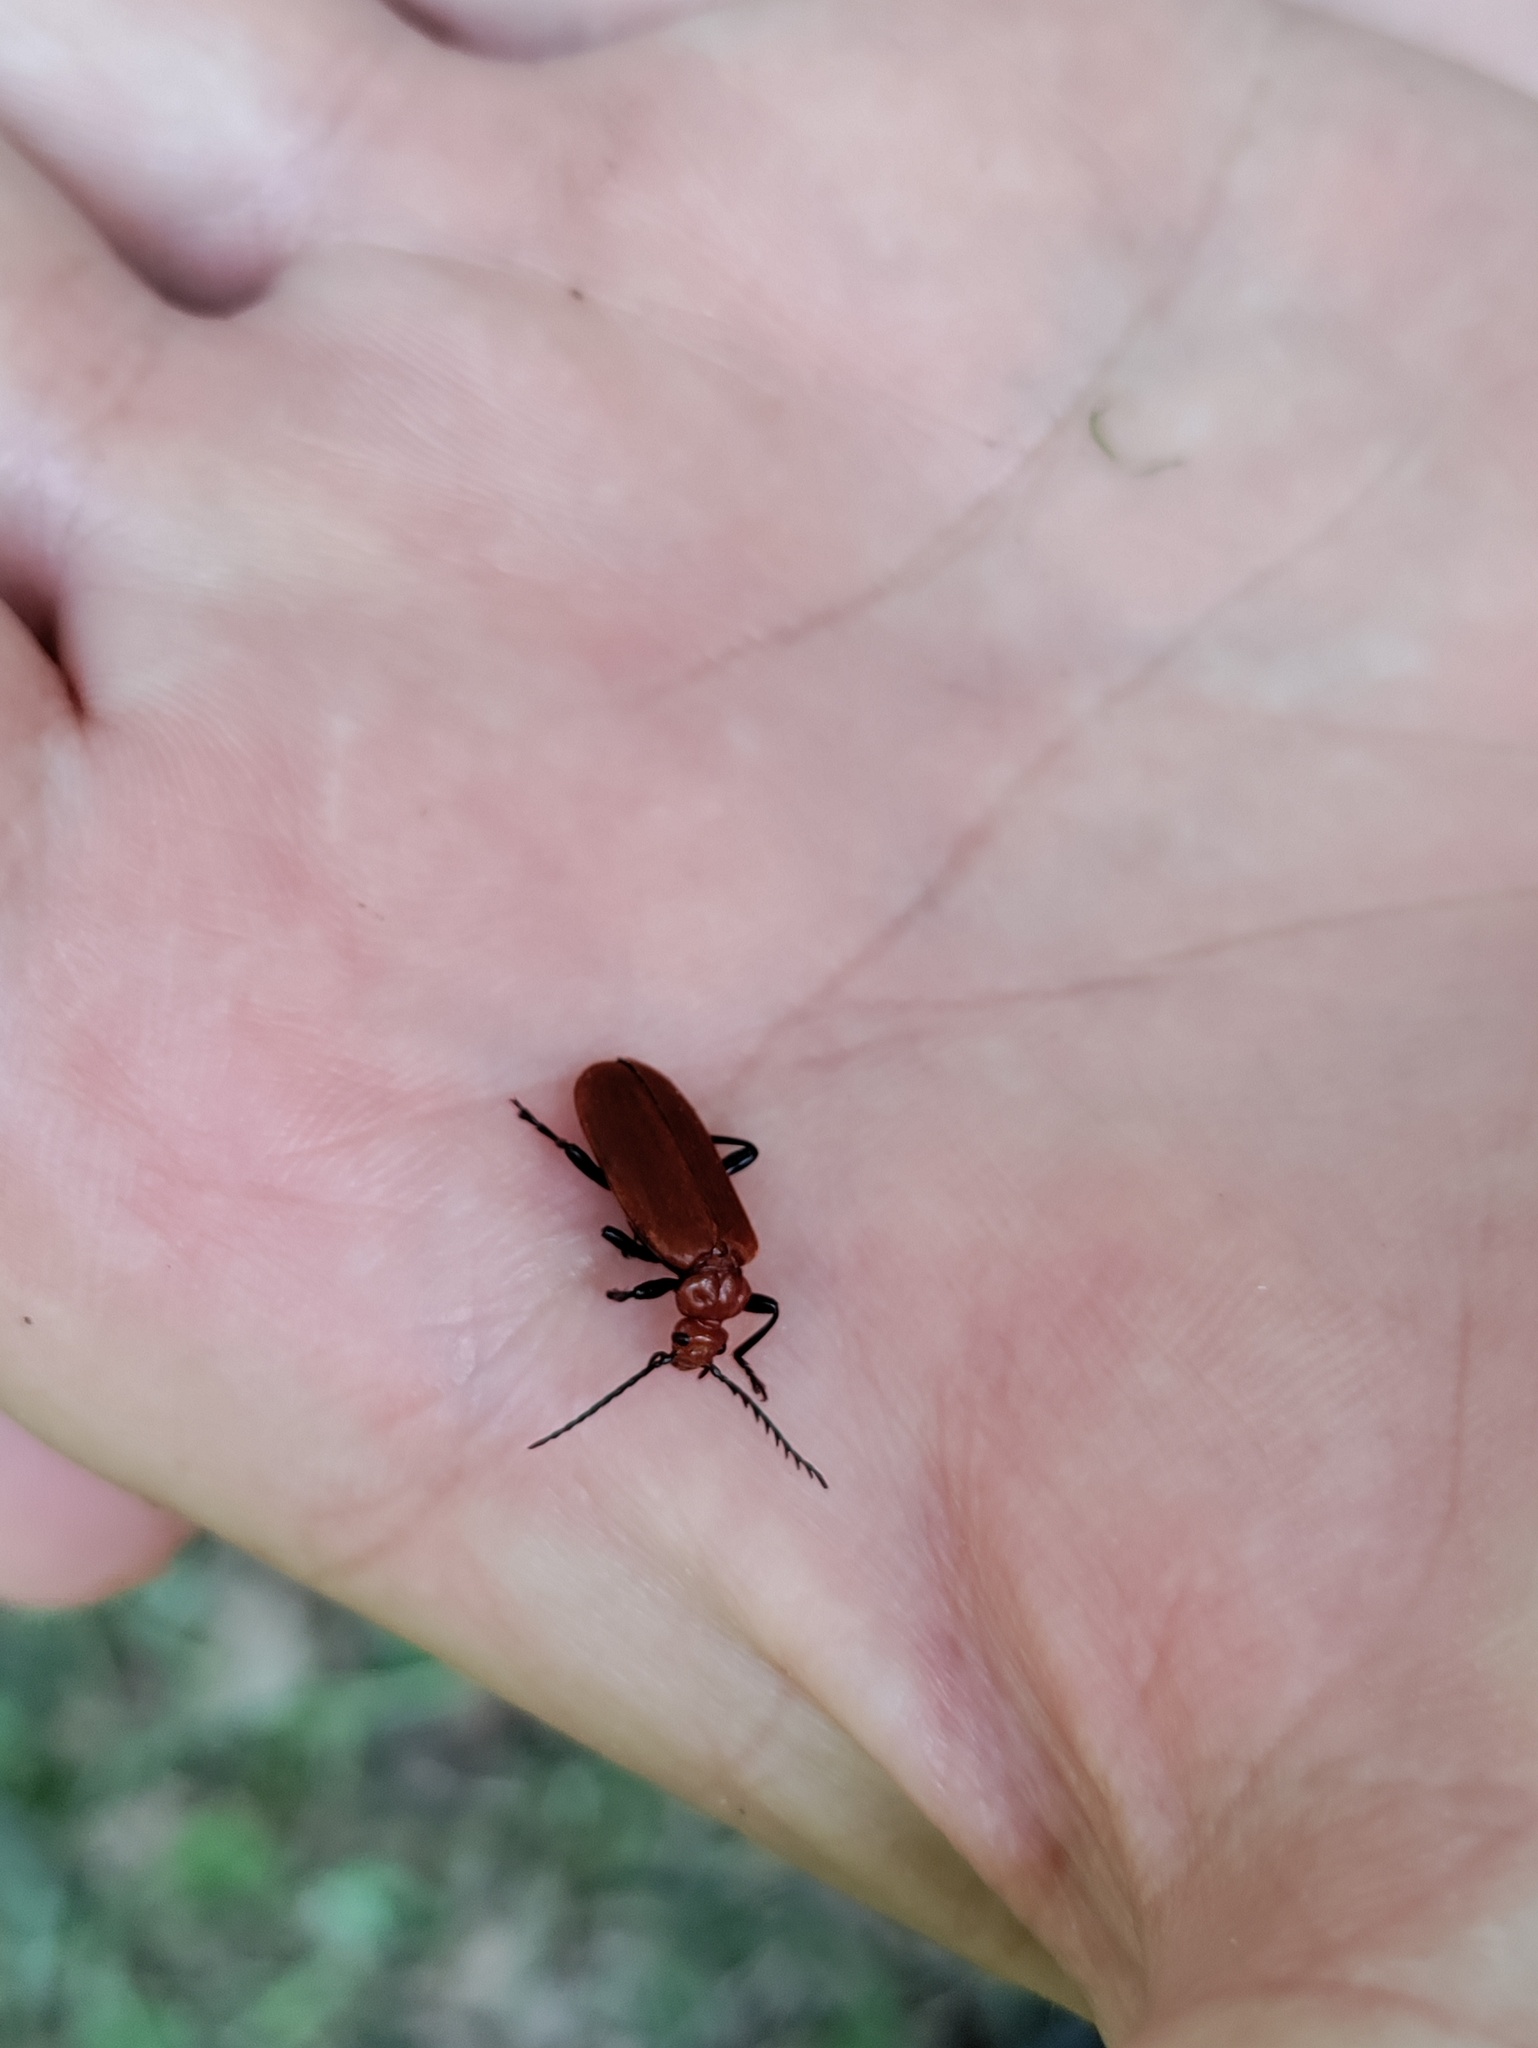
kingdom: Animalia
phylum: Arthropoda
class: Insecta
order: Coleoptera
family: Pyrochroidae
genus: Pyrochroa
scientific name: Pyrochroa serraticornis
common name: Red-headed cardinal beetle
